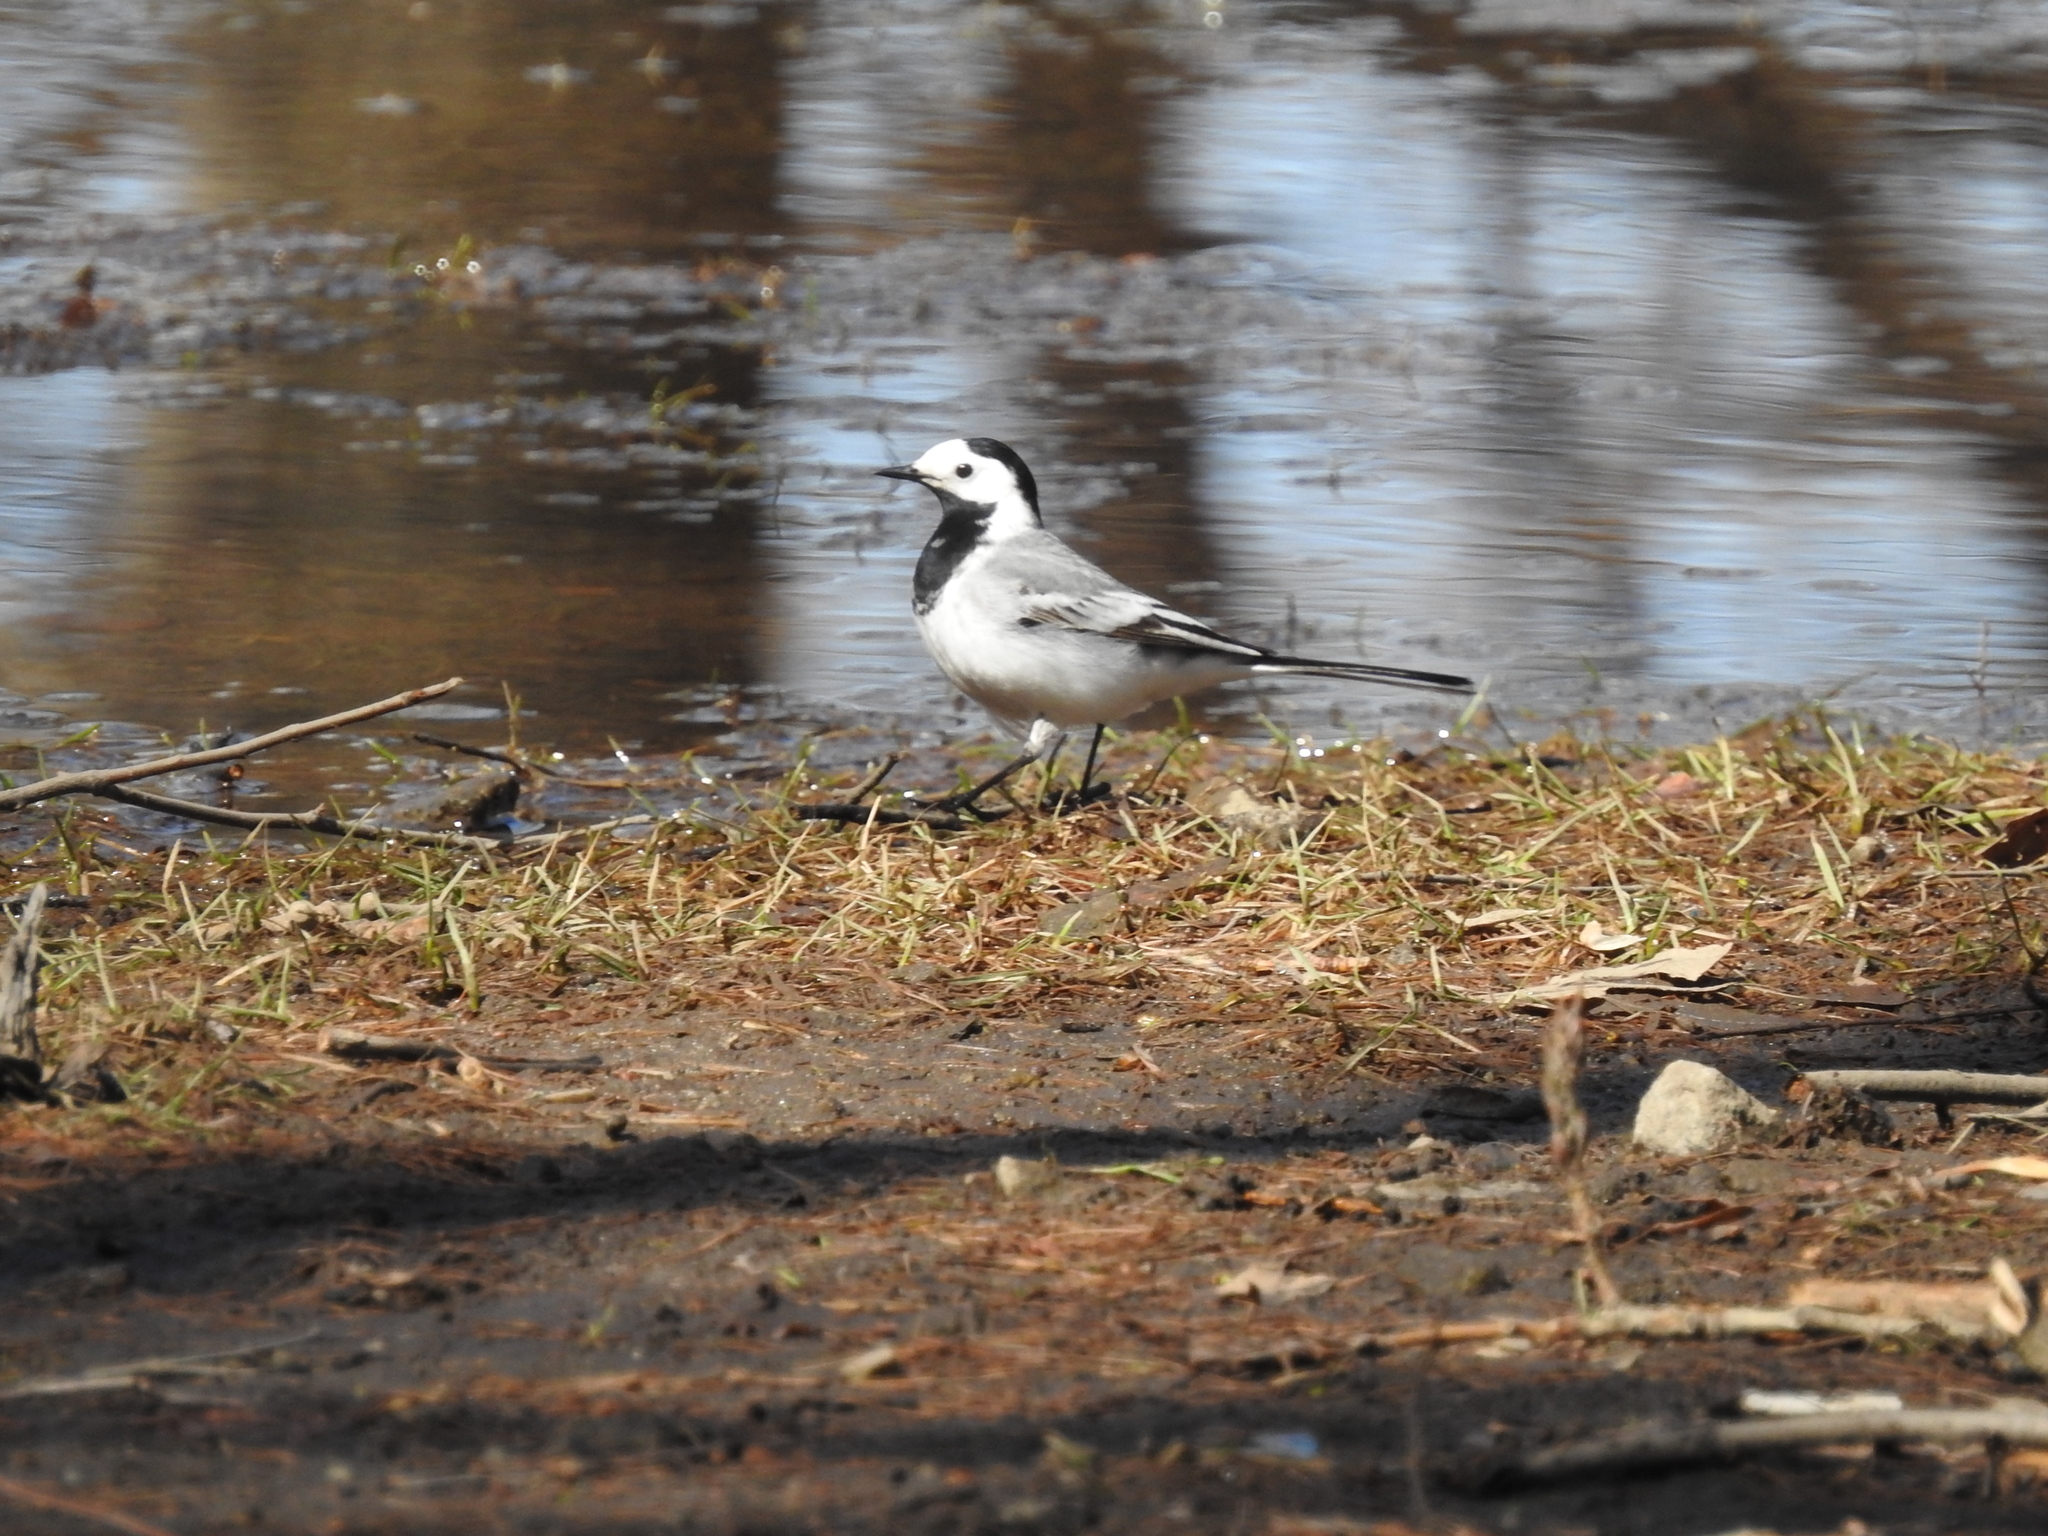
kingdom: Animalia
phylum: Chordata
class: Aves
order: Passeriformes
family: Motacillidae
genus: Motacilla
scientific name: Motacilla alba
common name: White wagtail
